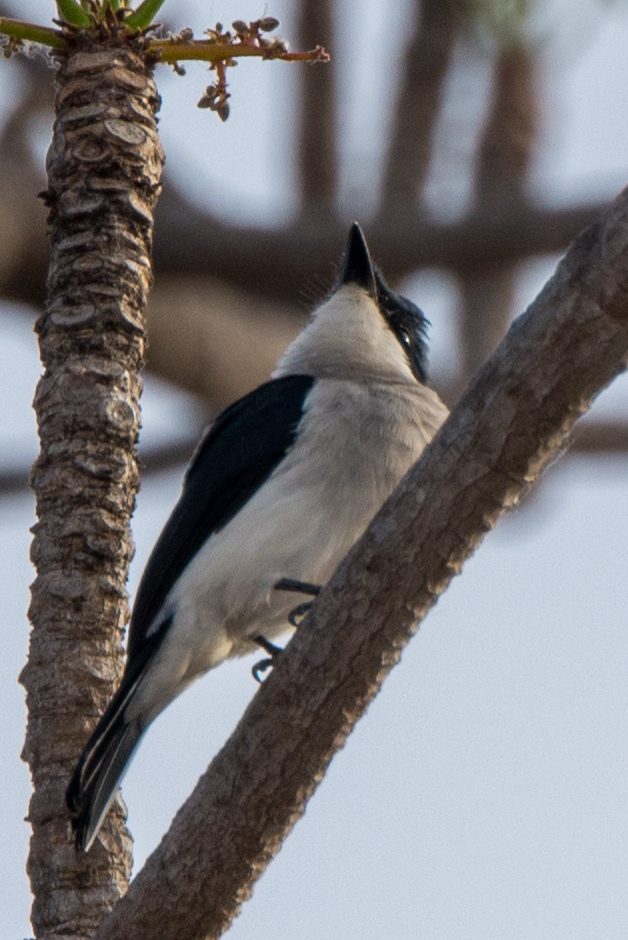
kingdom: Animalia
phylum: Chordata
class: Aves
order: Passeriformes
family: Tephrodornithidae
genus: Hemipus
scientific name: Hemipus hirundinaceus
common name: Black-winged flycatcher-shrike
